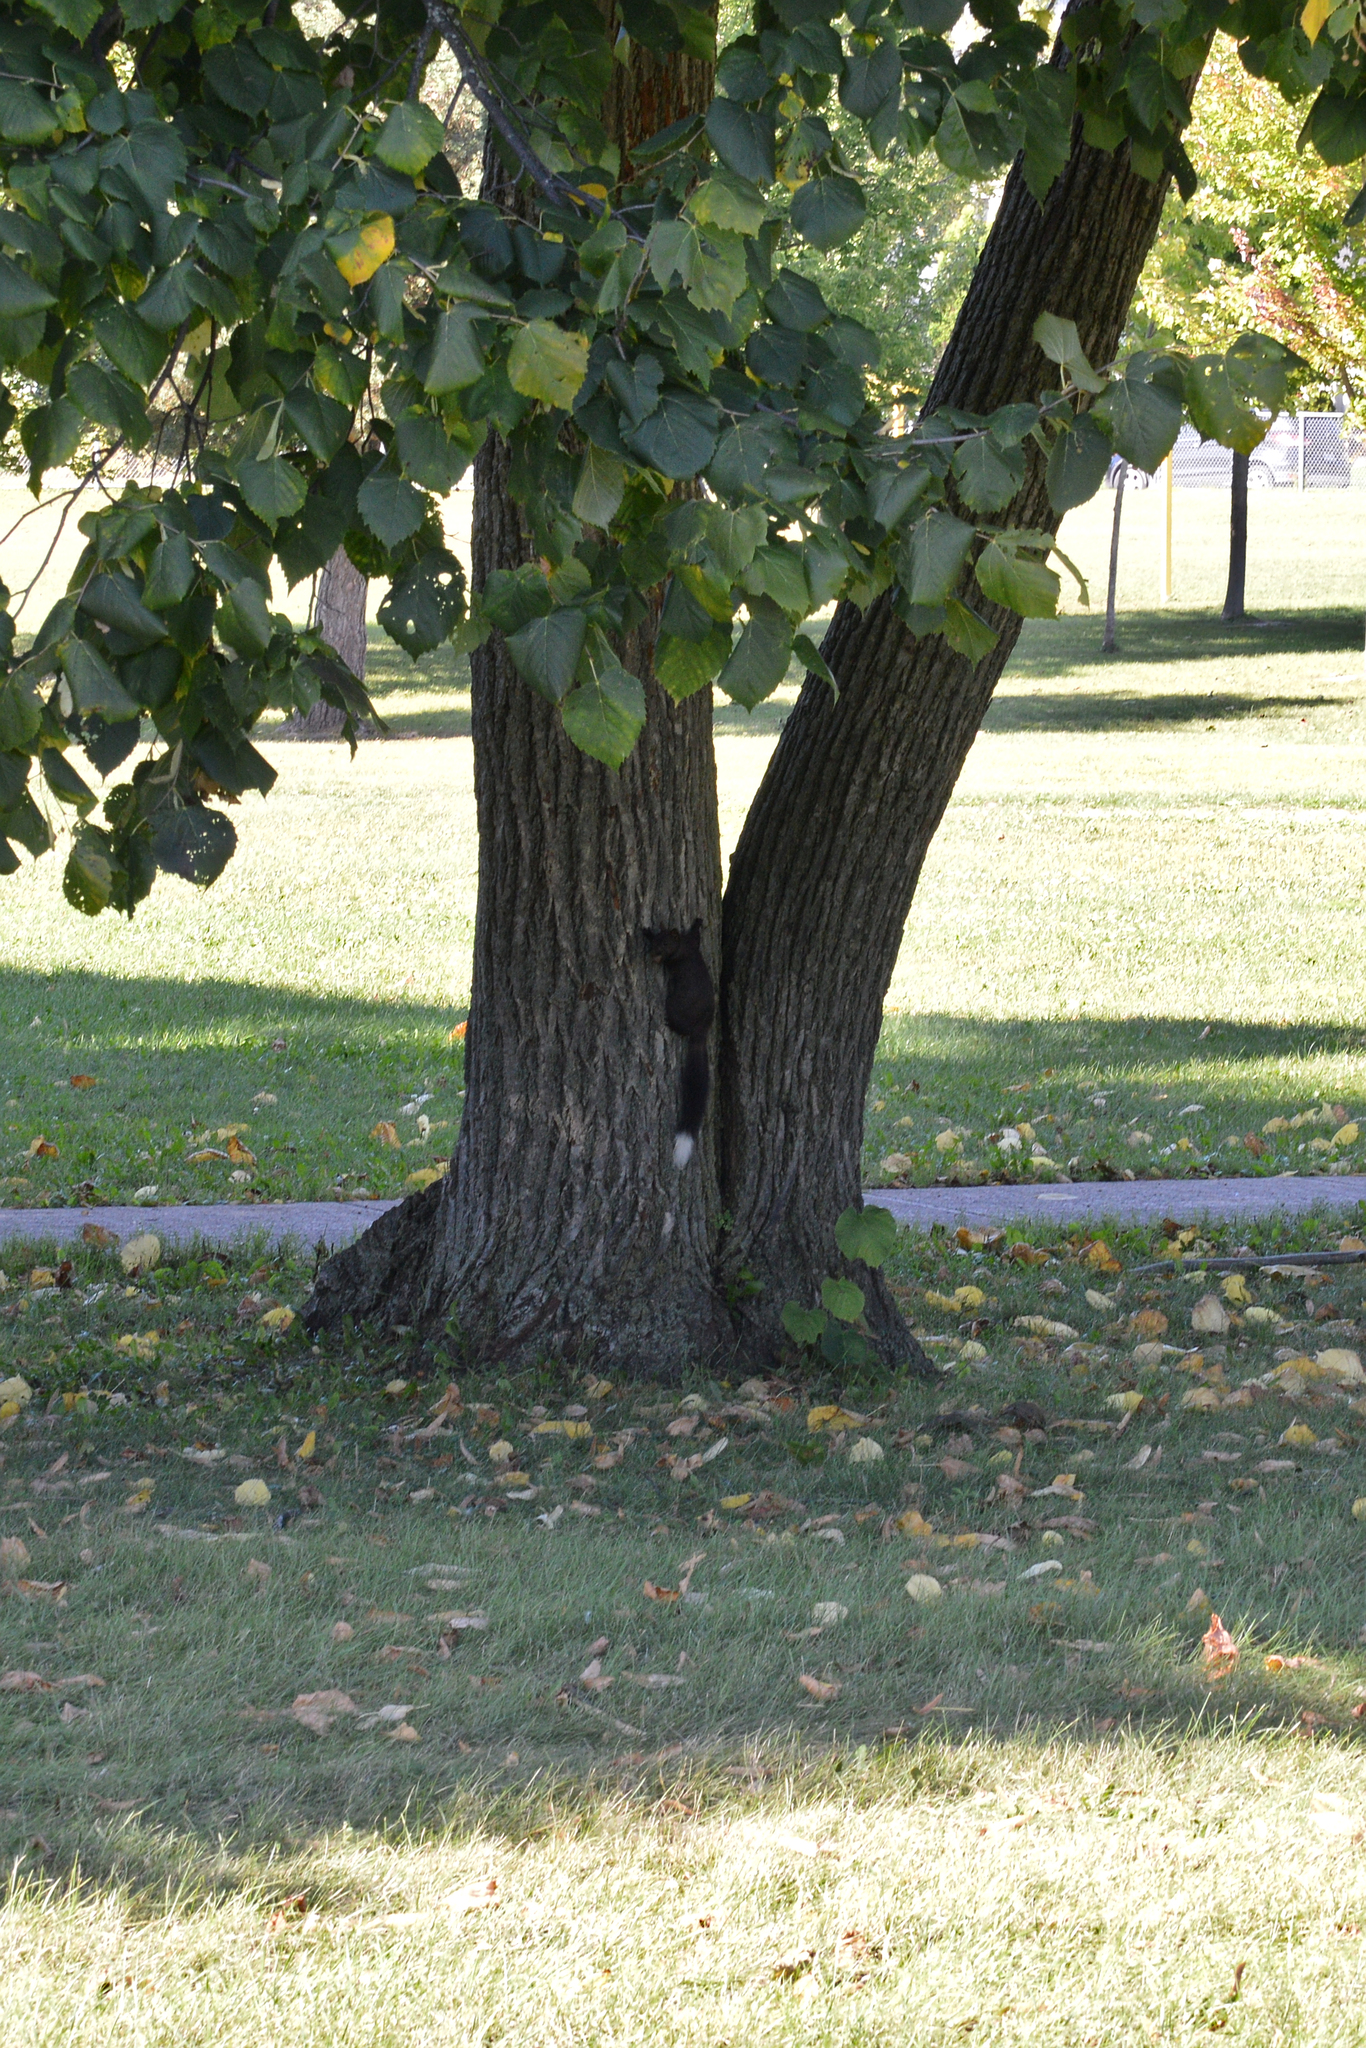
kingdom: Animalia
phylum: Chordata
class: Mammalia
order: Rodentia
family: Sciuridae
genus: Sciurus
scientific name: Sciurus carolinensis
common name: Eastern gray squirrel
